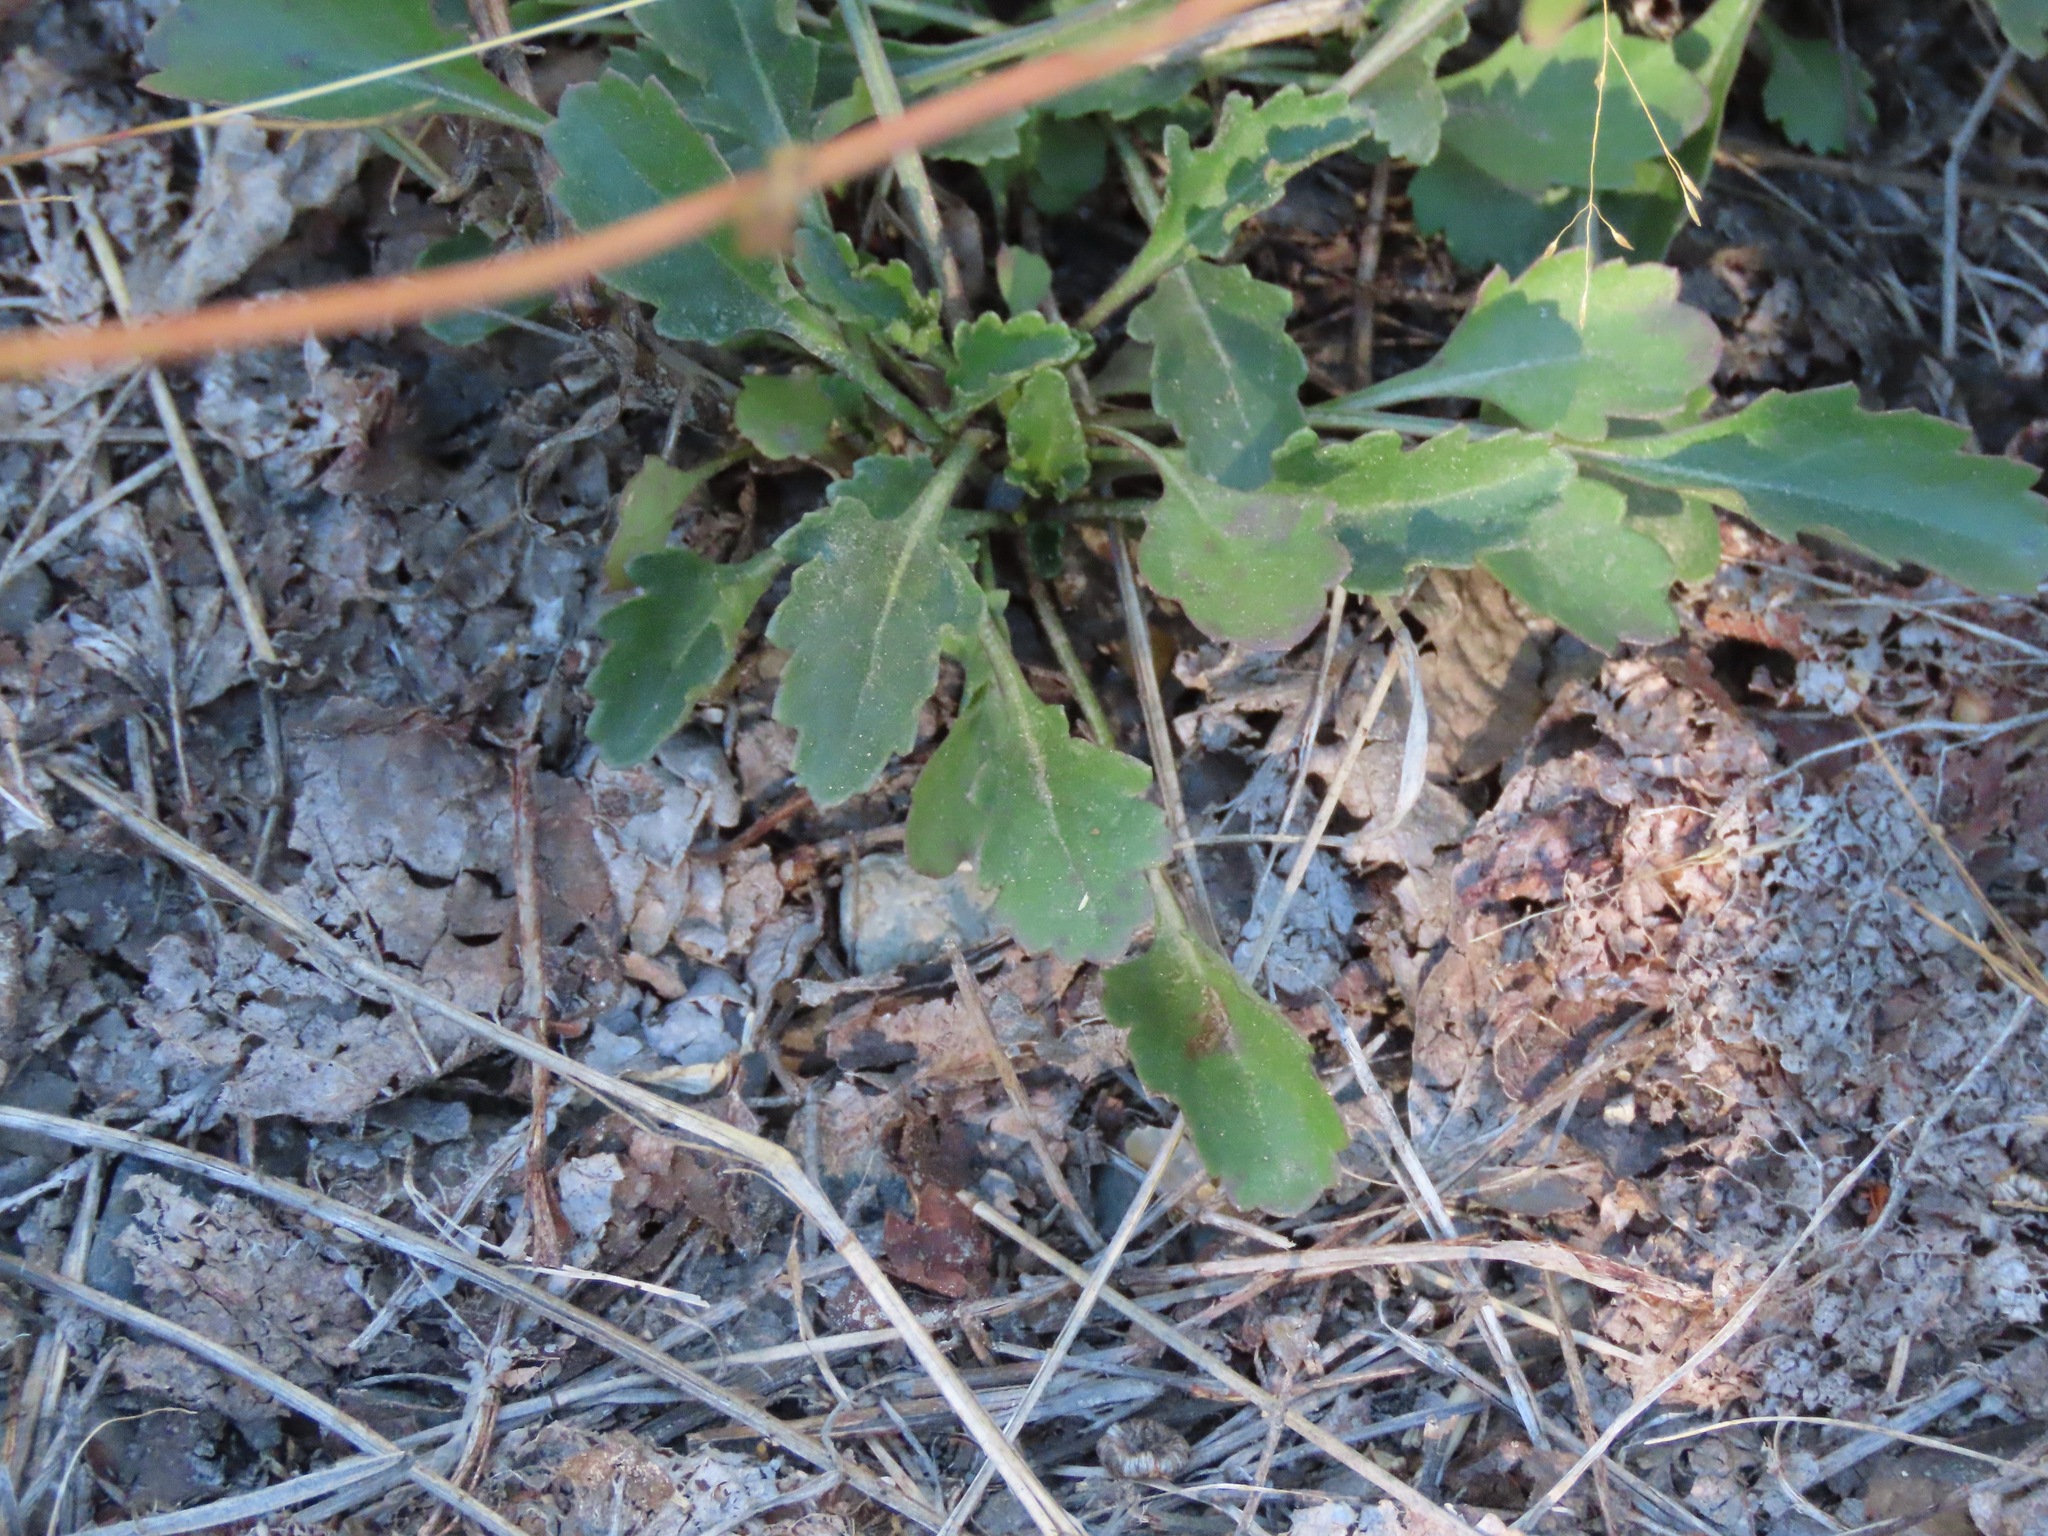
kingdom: Plantae
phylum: Tracheophyta
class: Magnoliopsida
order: Asterales
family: Asteraceae
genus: Leucanthemum
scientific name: Leucanthemum vulgare
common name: Oxeye daisy
